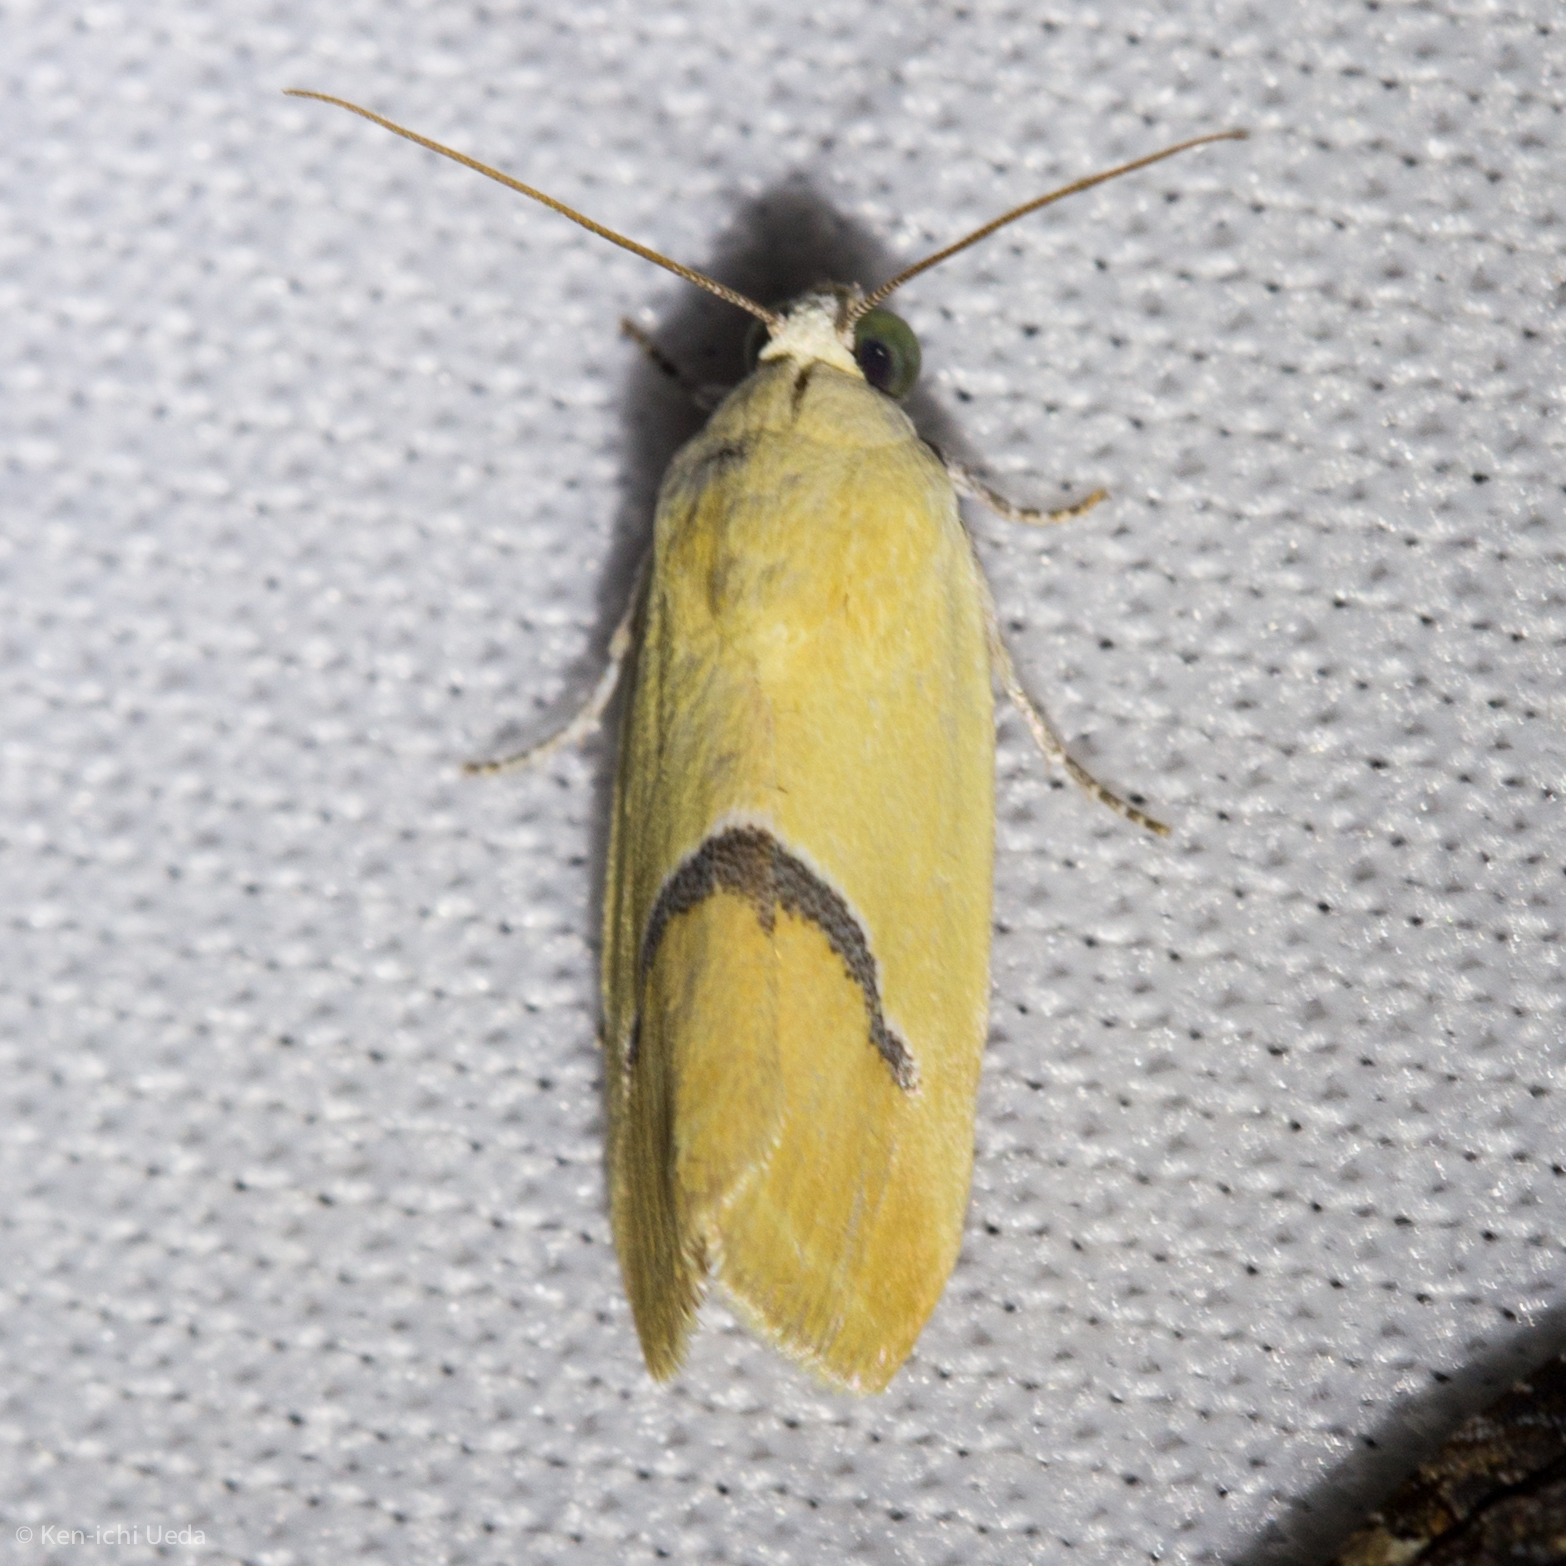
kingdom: Animalia
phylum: Arthropoda
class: Insecta
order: Lepidoptera
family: Noctuidae
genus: Ponometia
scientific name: Ponometia venustula
